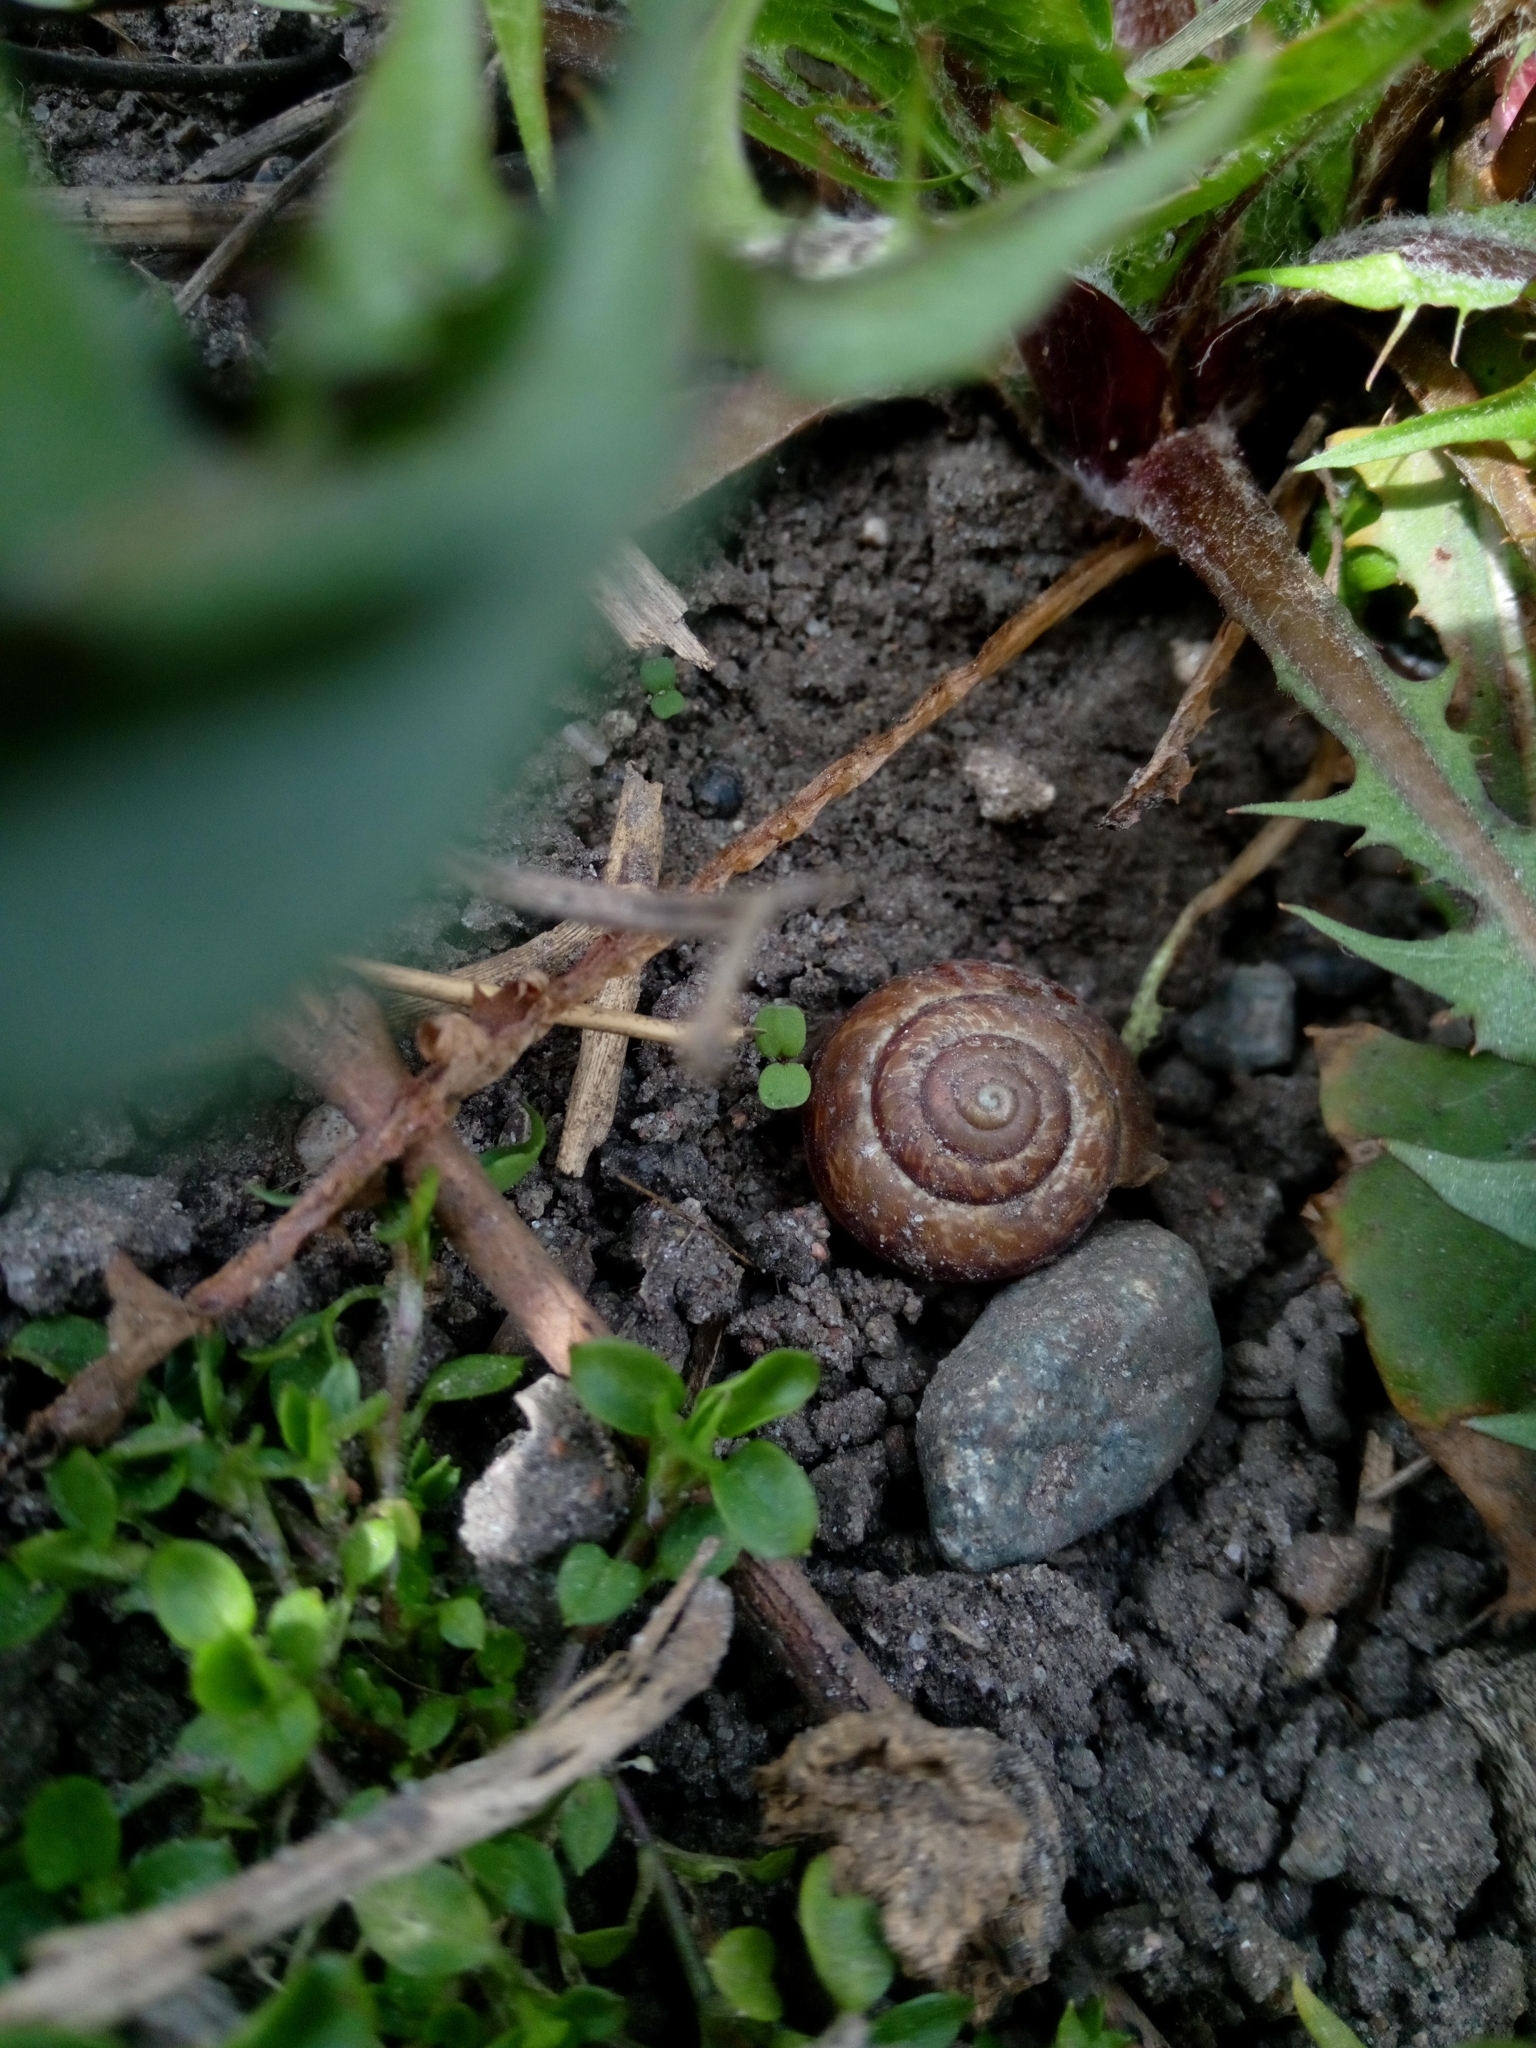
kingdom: Animalia
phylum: Mollusca
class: Gastropoda
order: Stylommatophora
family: Helicidae
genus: Arianta
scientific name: Arianta arbustorum
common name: Copse snail
